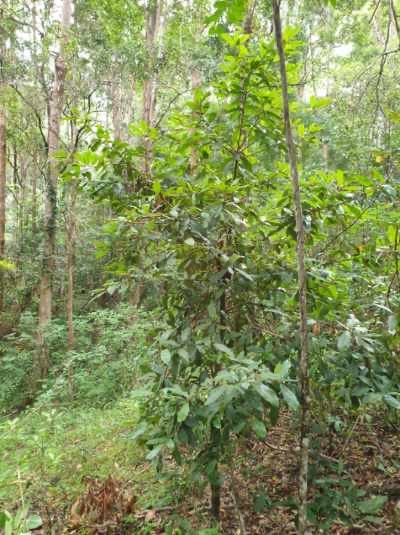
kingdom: Plantae
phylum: Tracheophyta
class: Magnoliopsida
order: Ericales
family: Sapotaceae
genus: Niemeyera
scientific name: Niemeyera whitei
